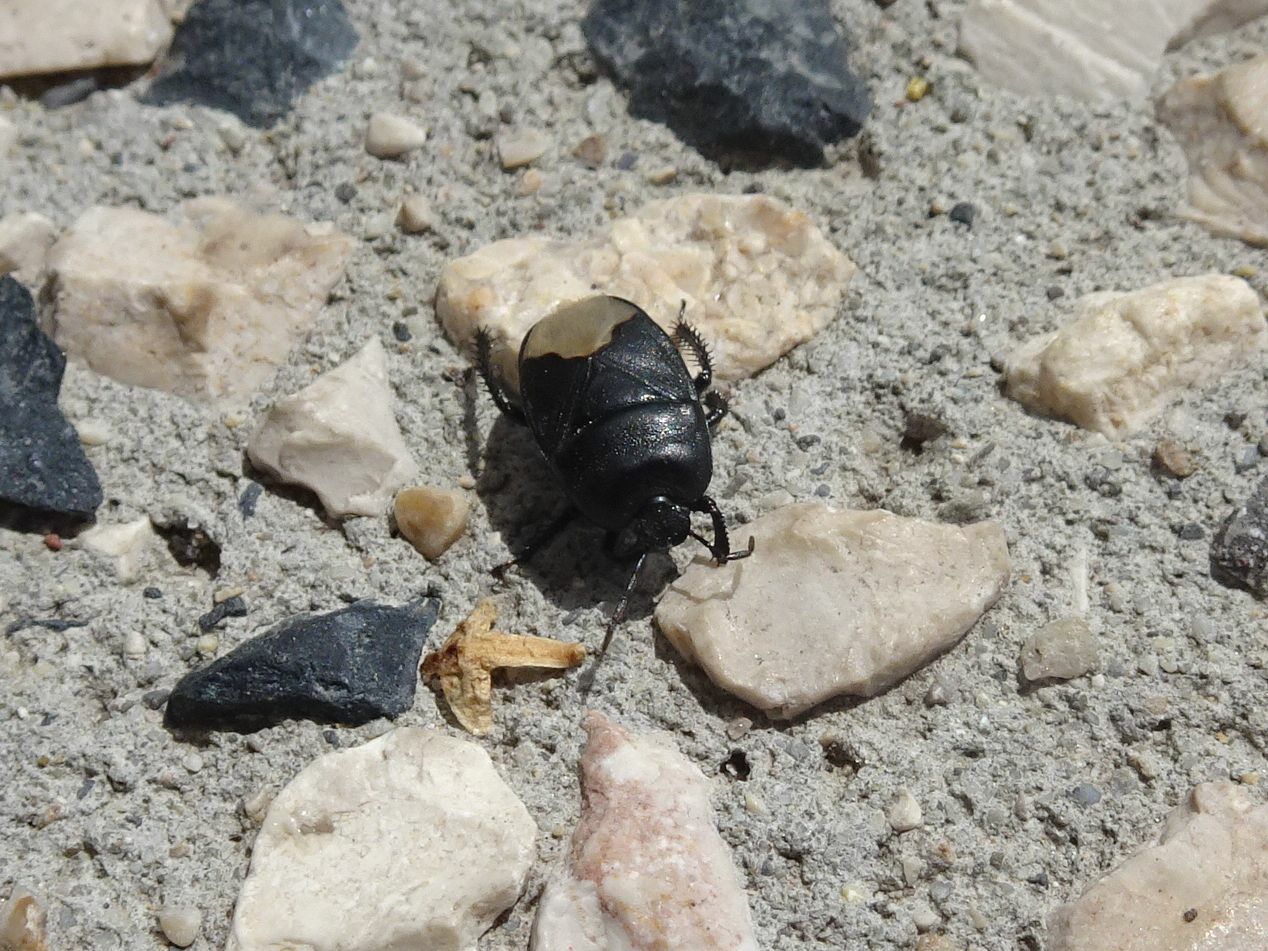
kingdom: Animalia
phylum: Arthropoda
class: Insecta
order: Hemiptera
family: Cydnidae
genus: Cydnus
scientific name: Cydnus aterrimus
